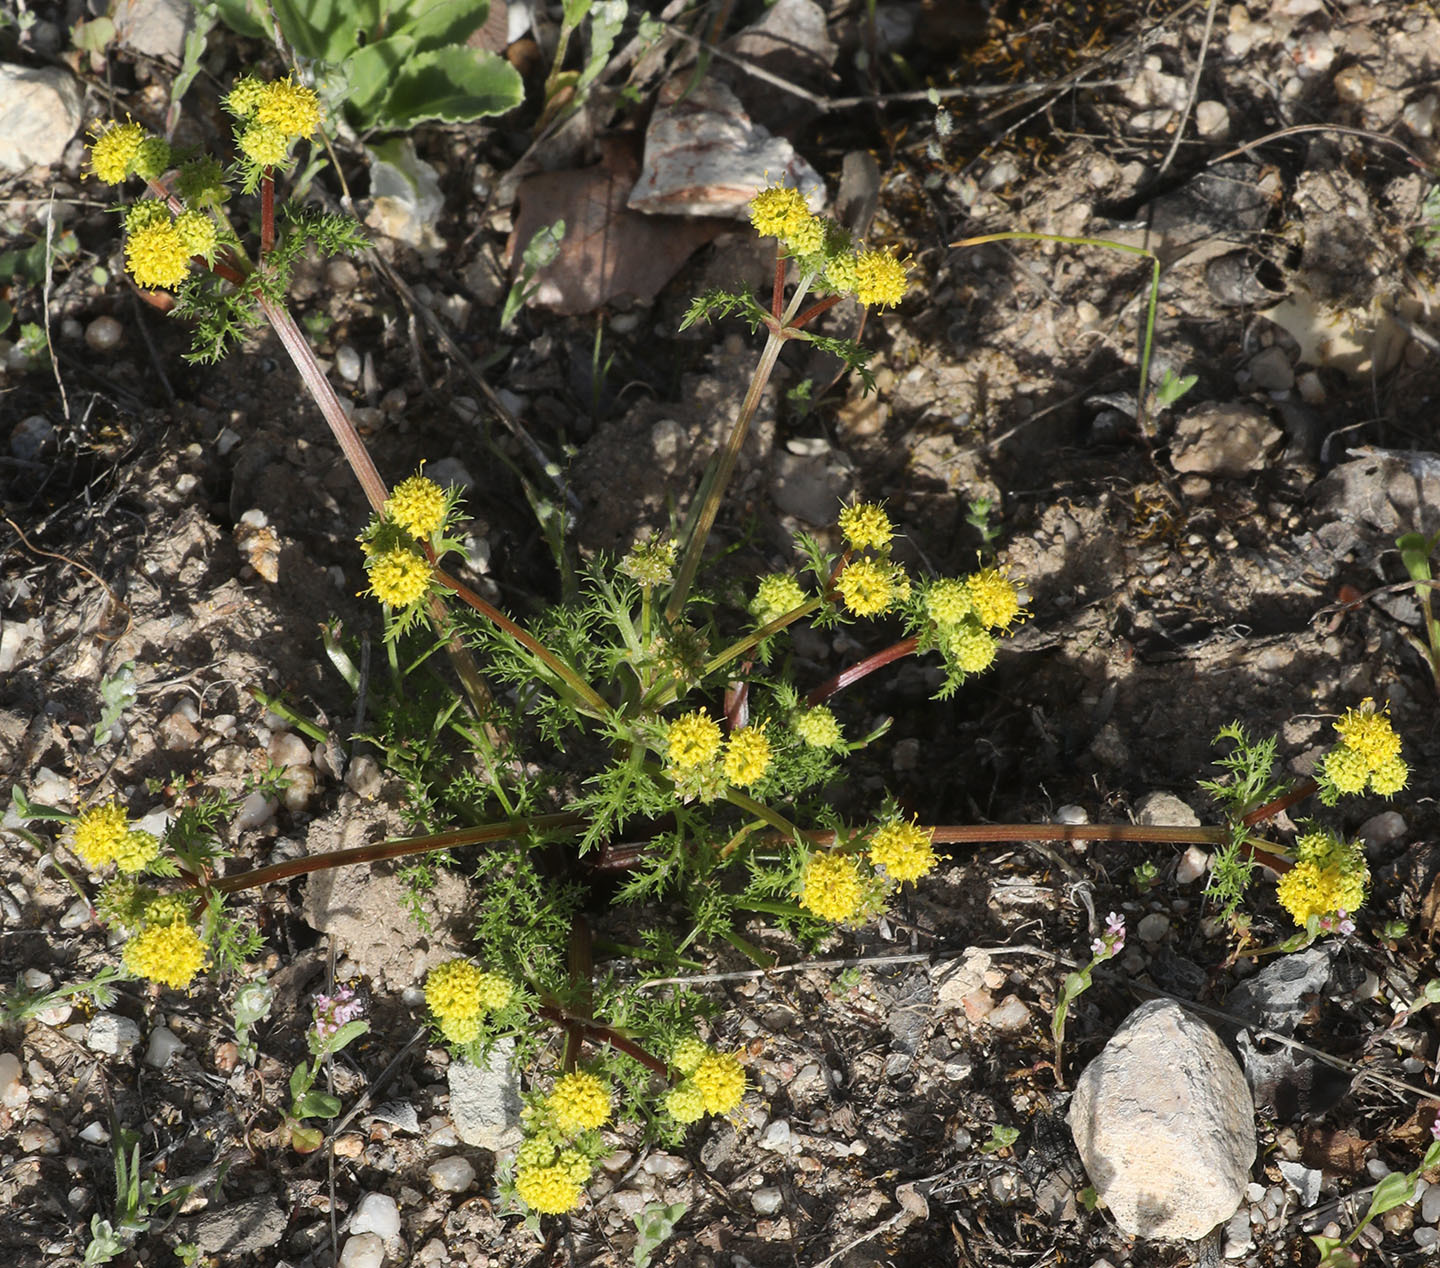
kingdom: Plantae
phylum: Tracheophyta
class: Magnoliopsida
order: Apiales
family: Apiaceae
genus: Sanicula
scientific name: Sanicula tuberosa
